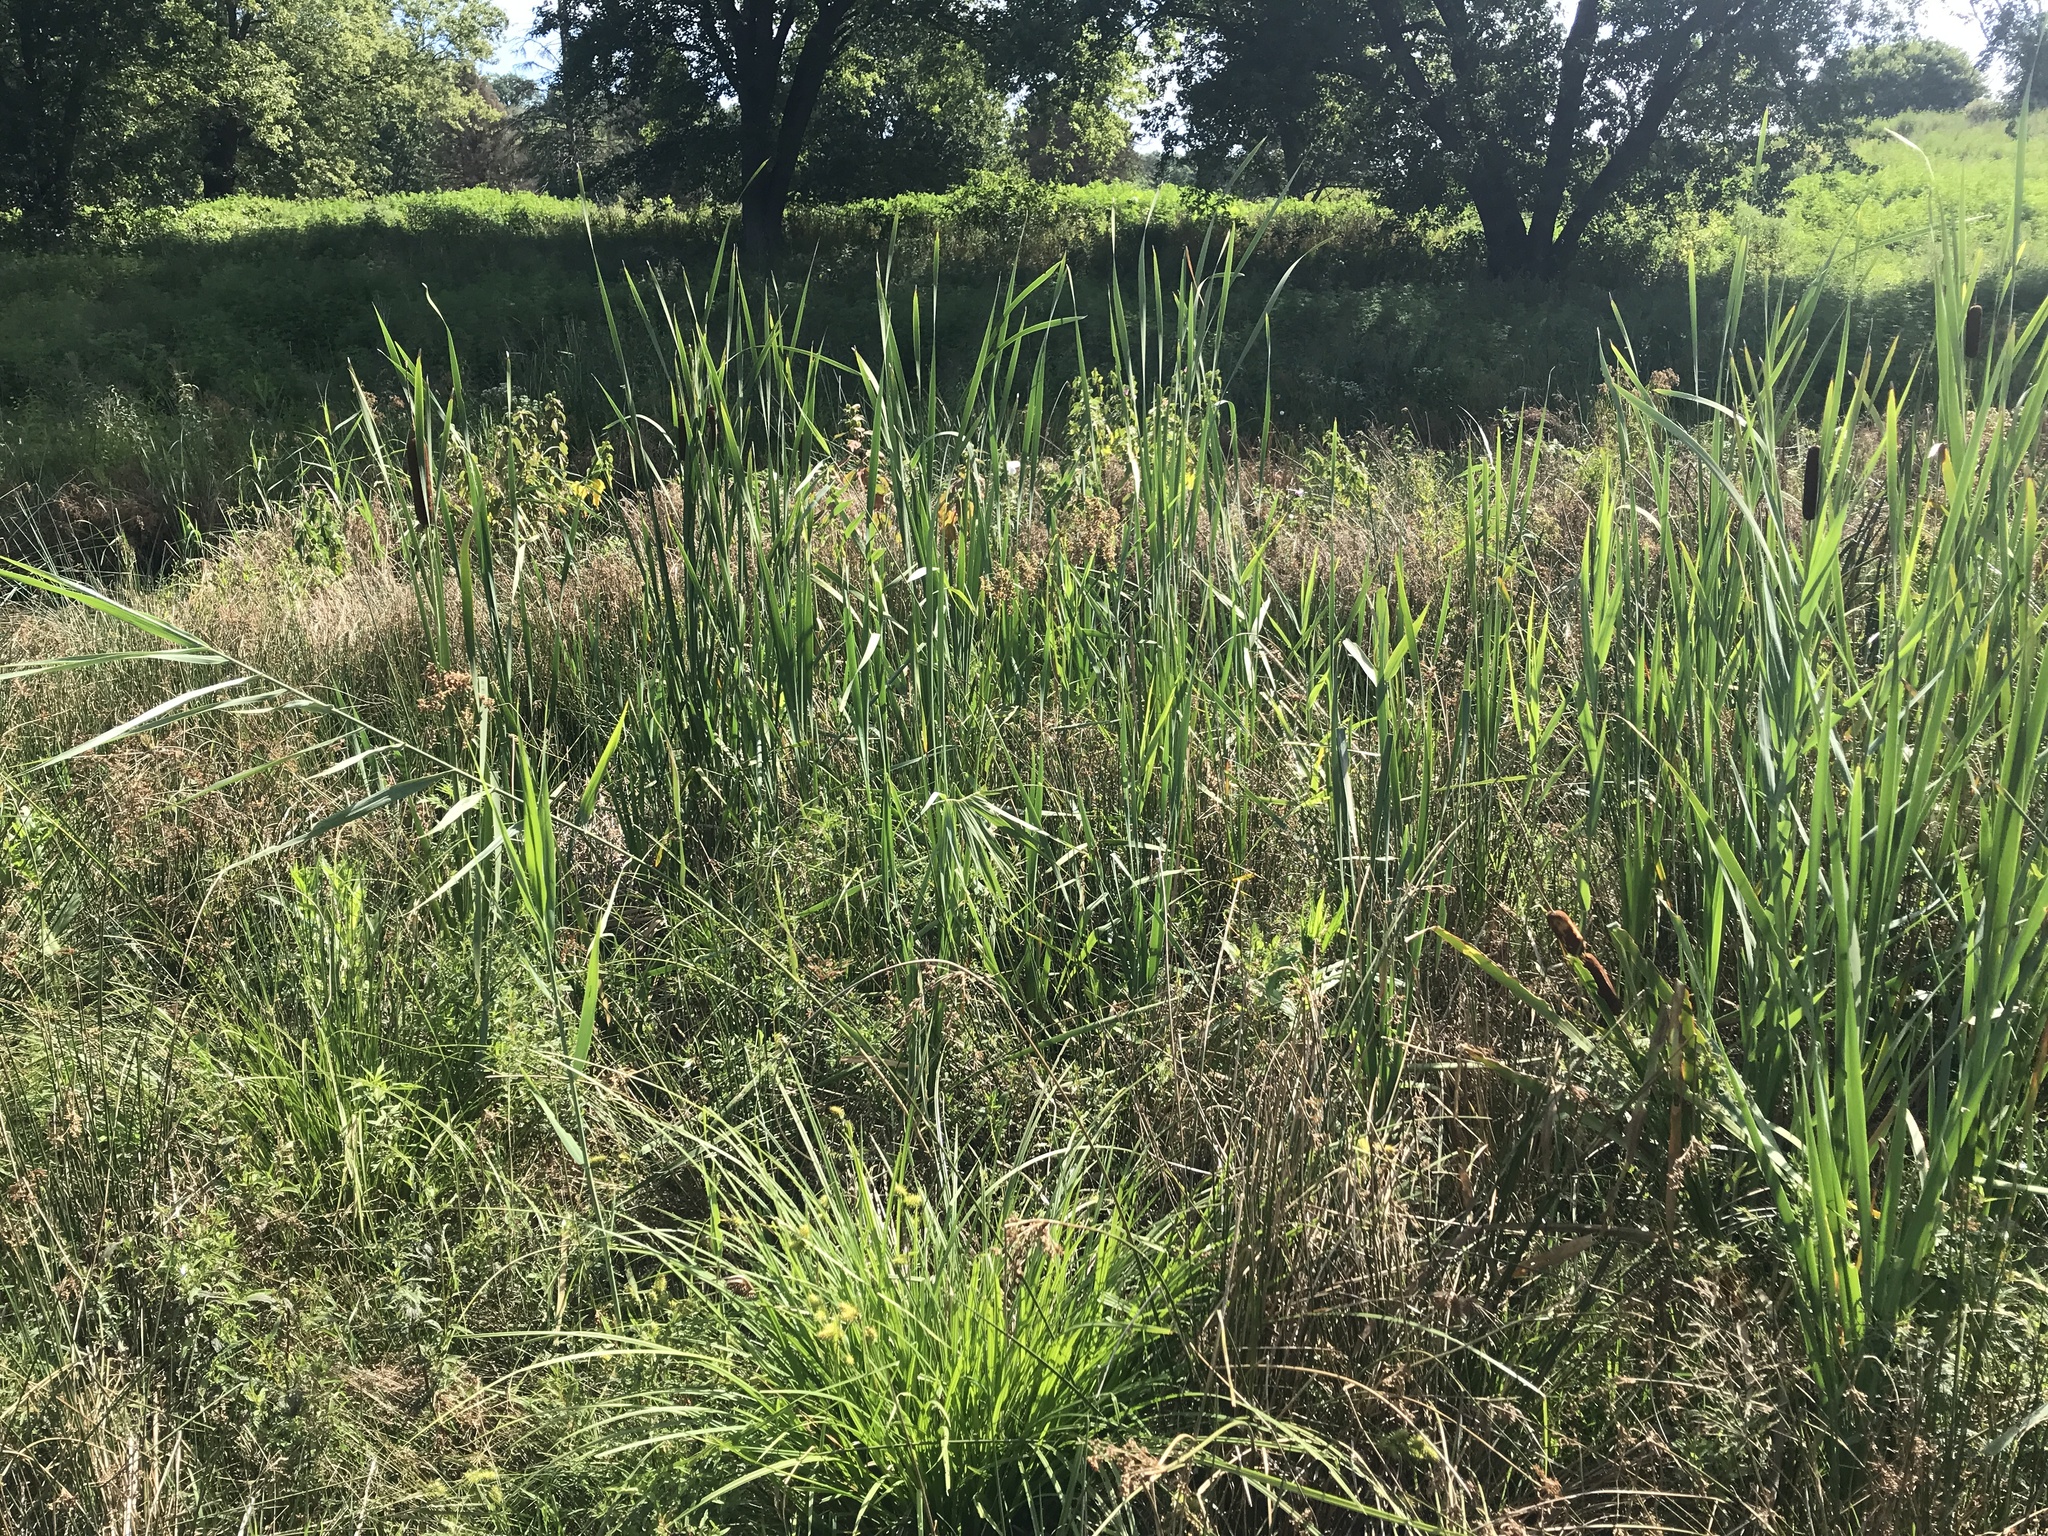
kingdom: Plantae
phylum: Tracheophyta
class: Liliopsida
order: Poales
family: Poaceae
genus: Phragmites
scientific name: Phragmites australis
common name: Common reed
